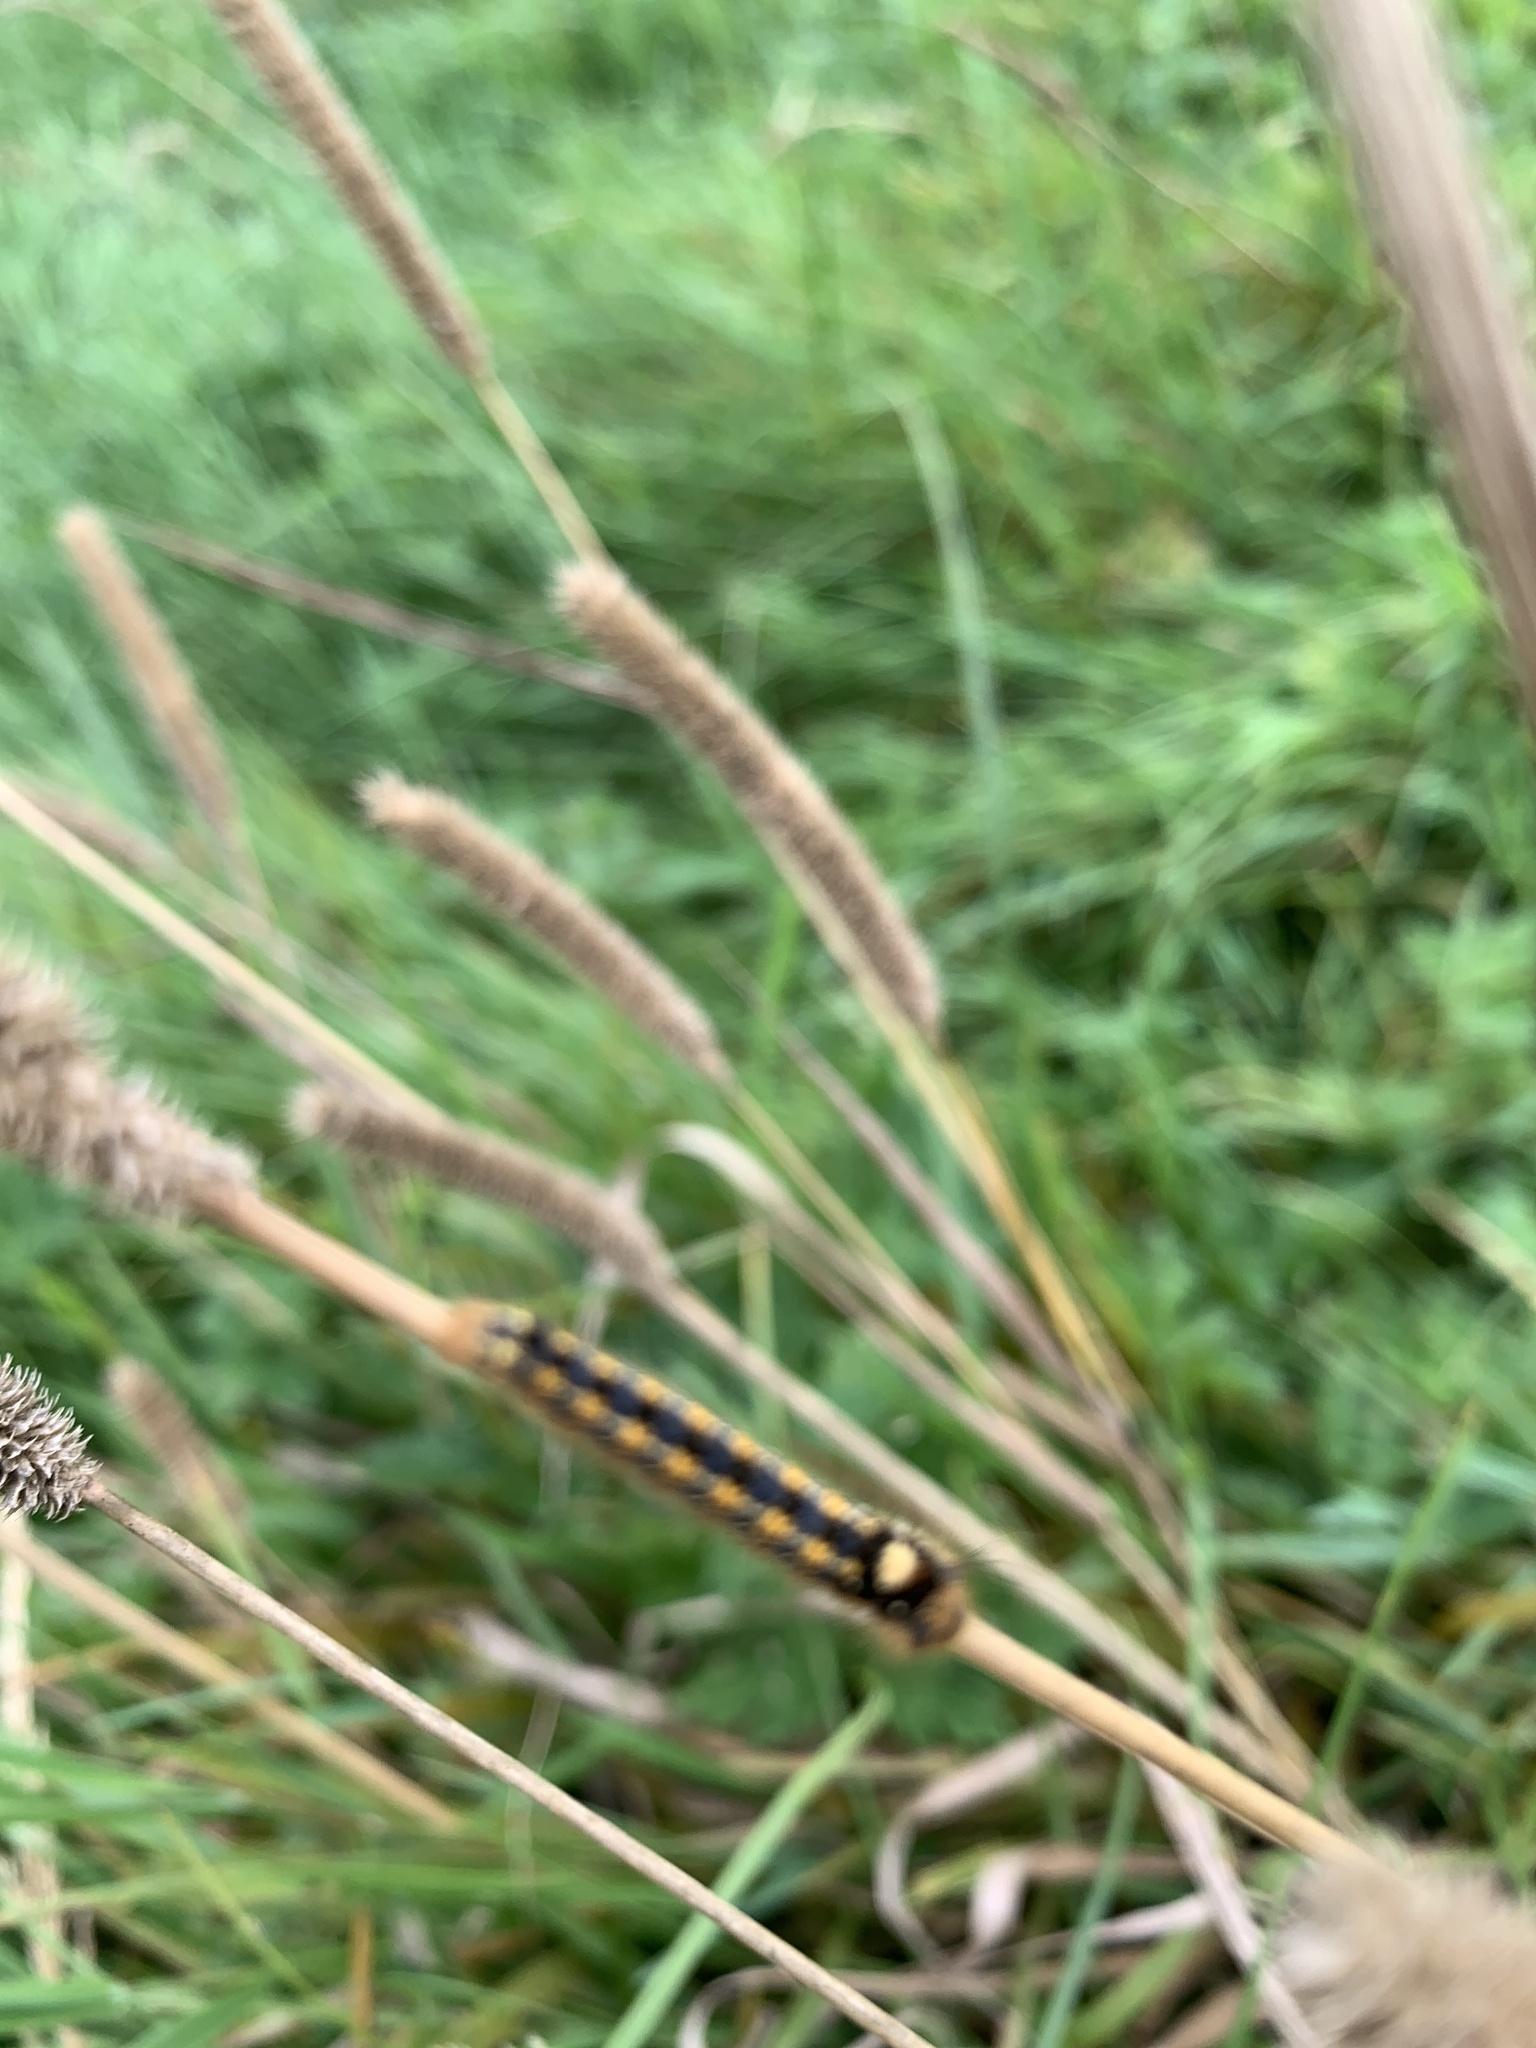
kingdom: Animalia
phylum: Arthropoda
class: Insecta
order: Lepidoptera
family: Lasiocampidae
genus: Euthrix
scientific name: Euthrix potatoria
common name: Drinker
